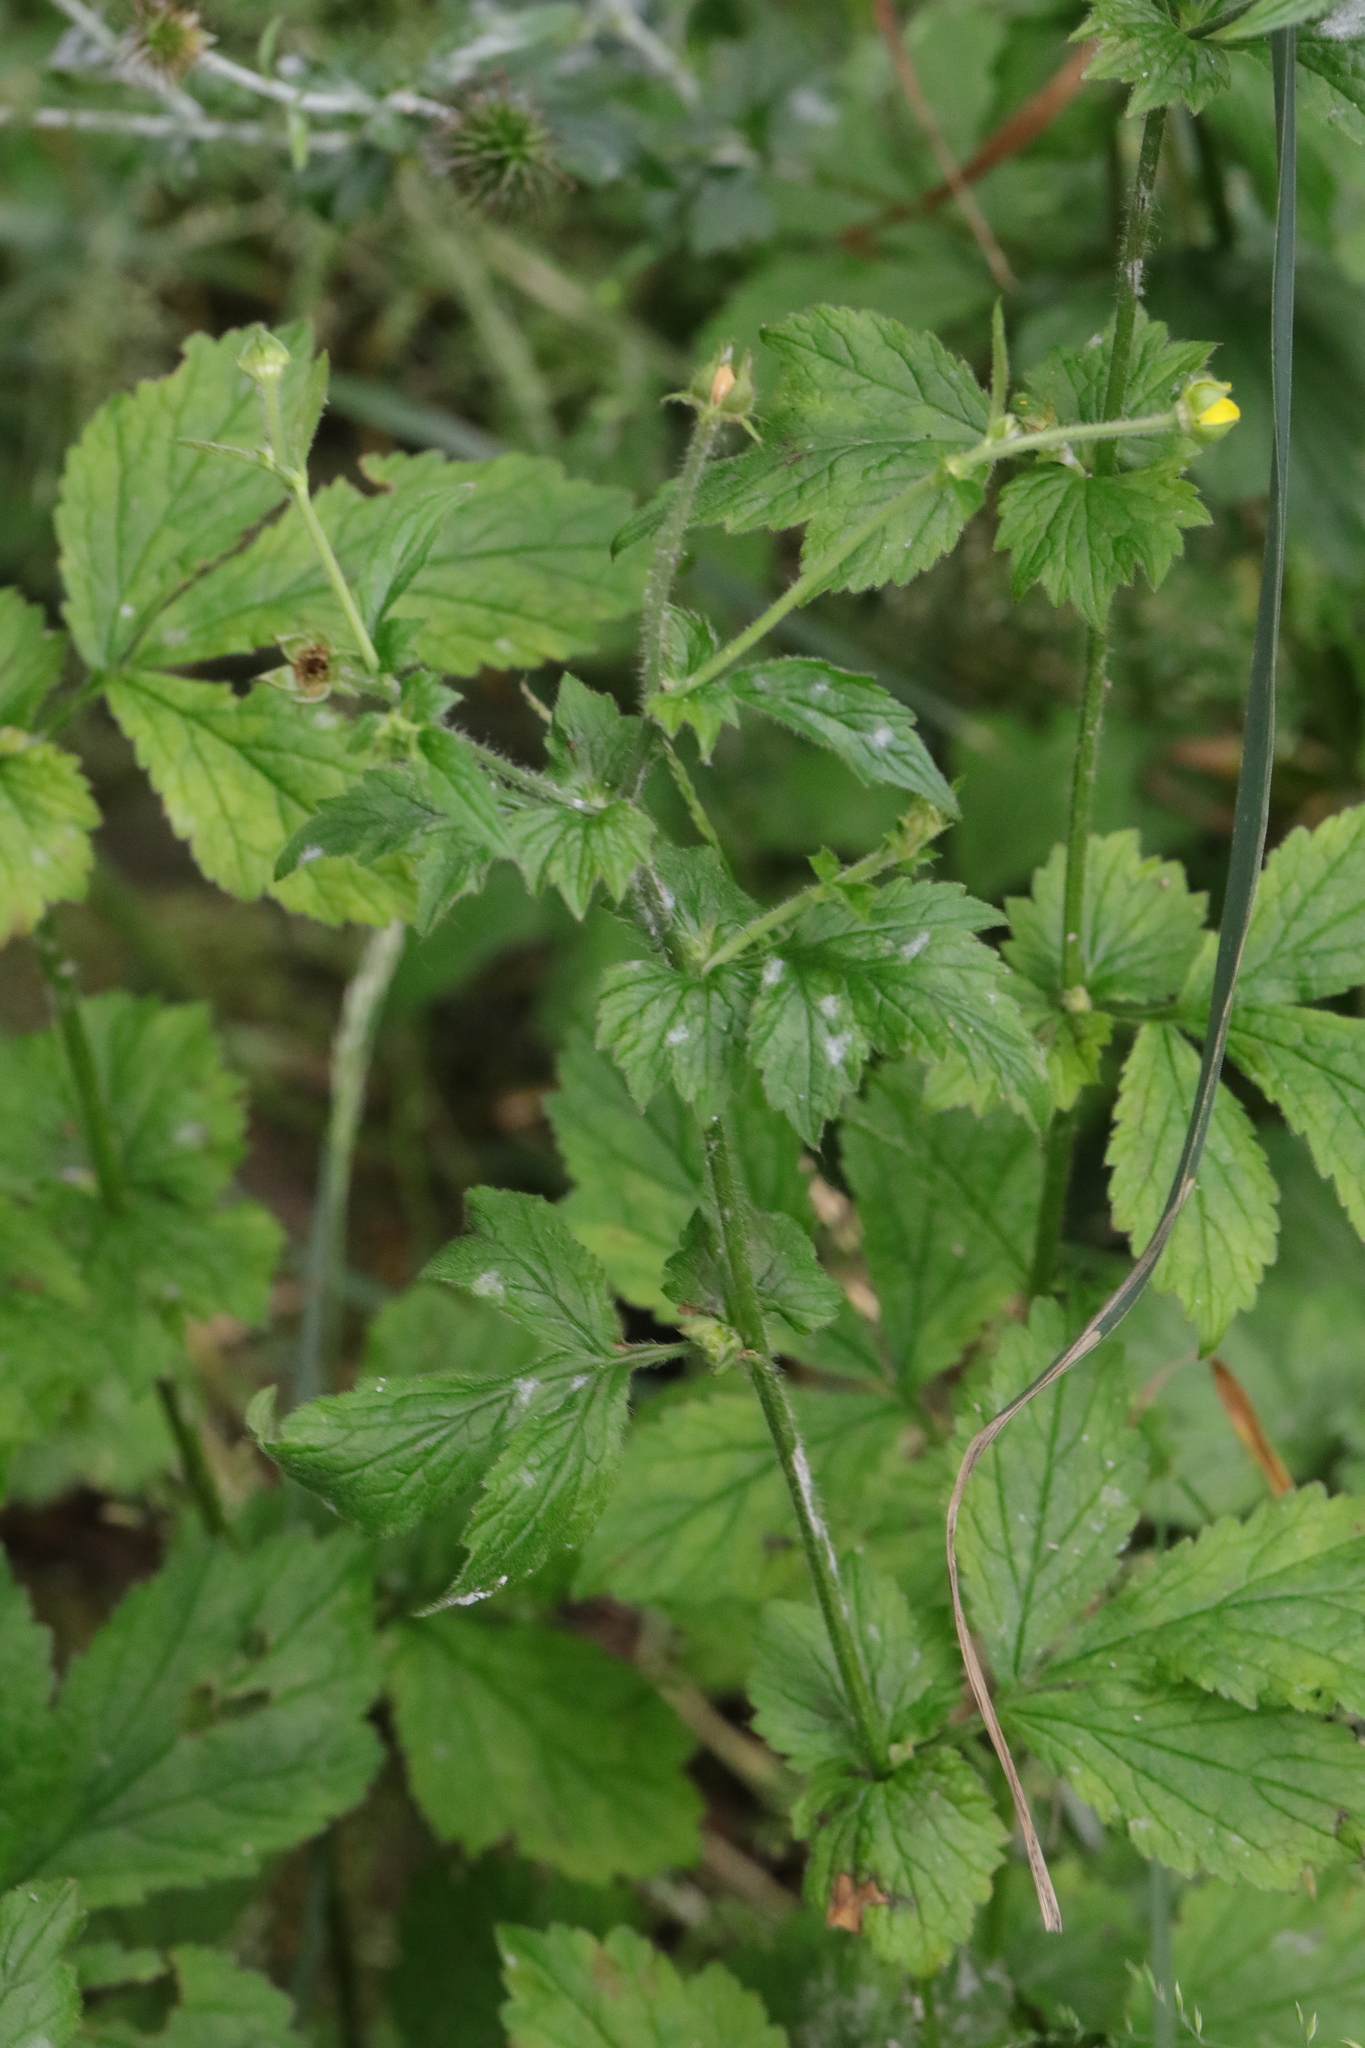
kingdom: Plantae
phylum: Tracheophyta
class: Magnoliopsida
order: Rosales
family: Rosaceae
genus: Geum
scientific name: Geum urbanum
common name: Wood avens
